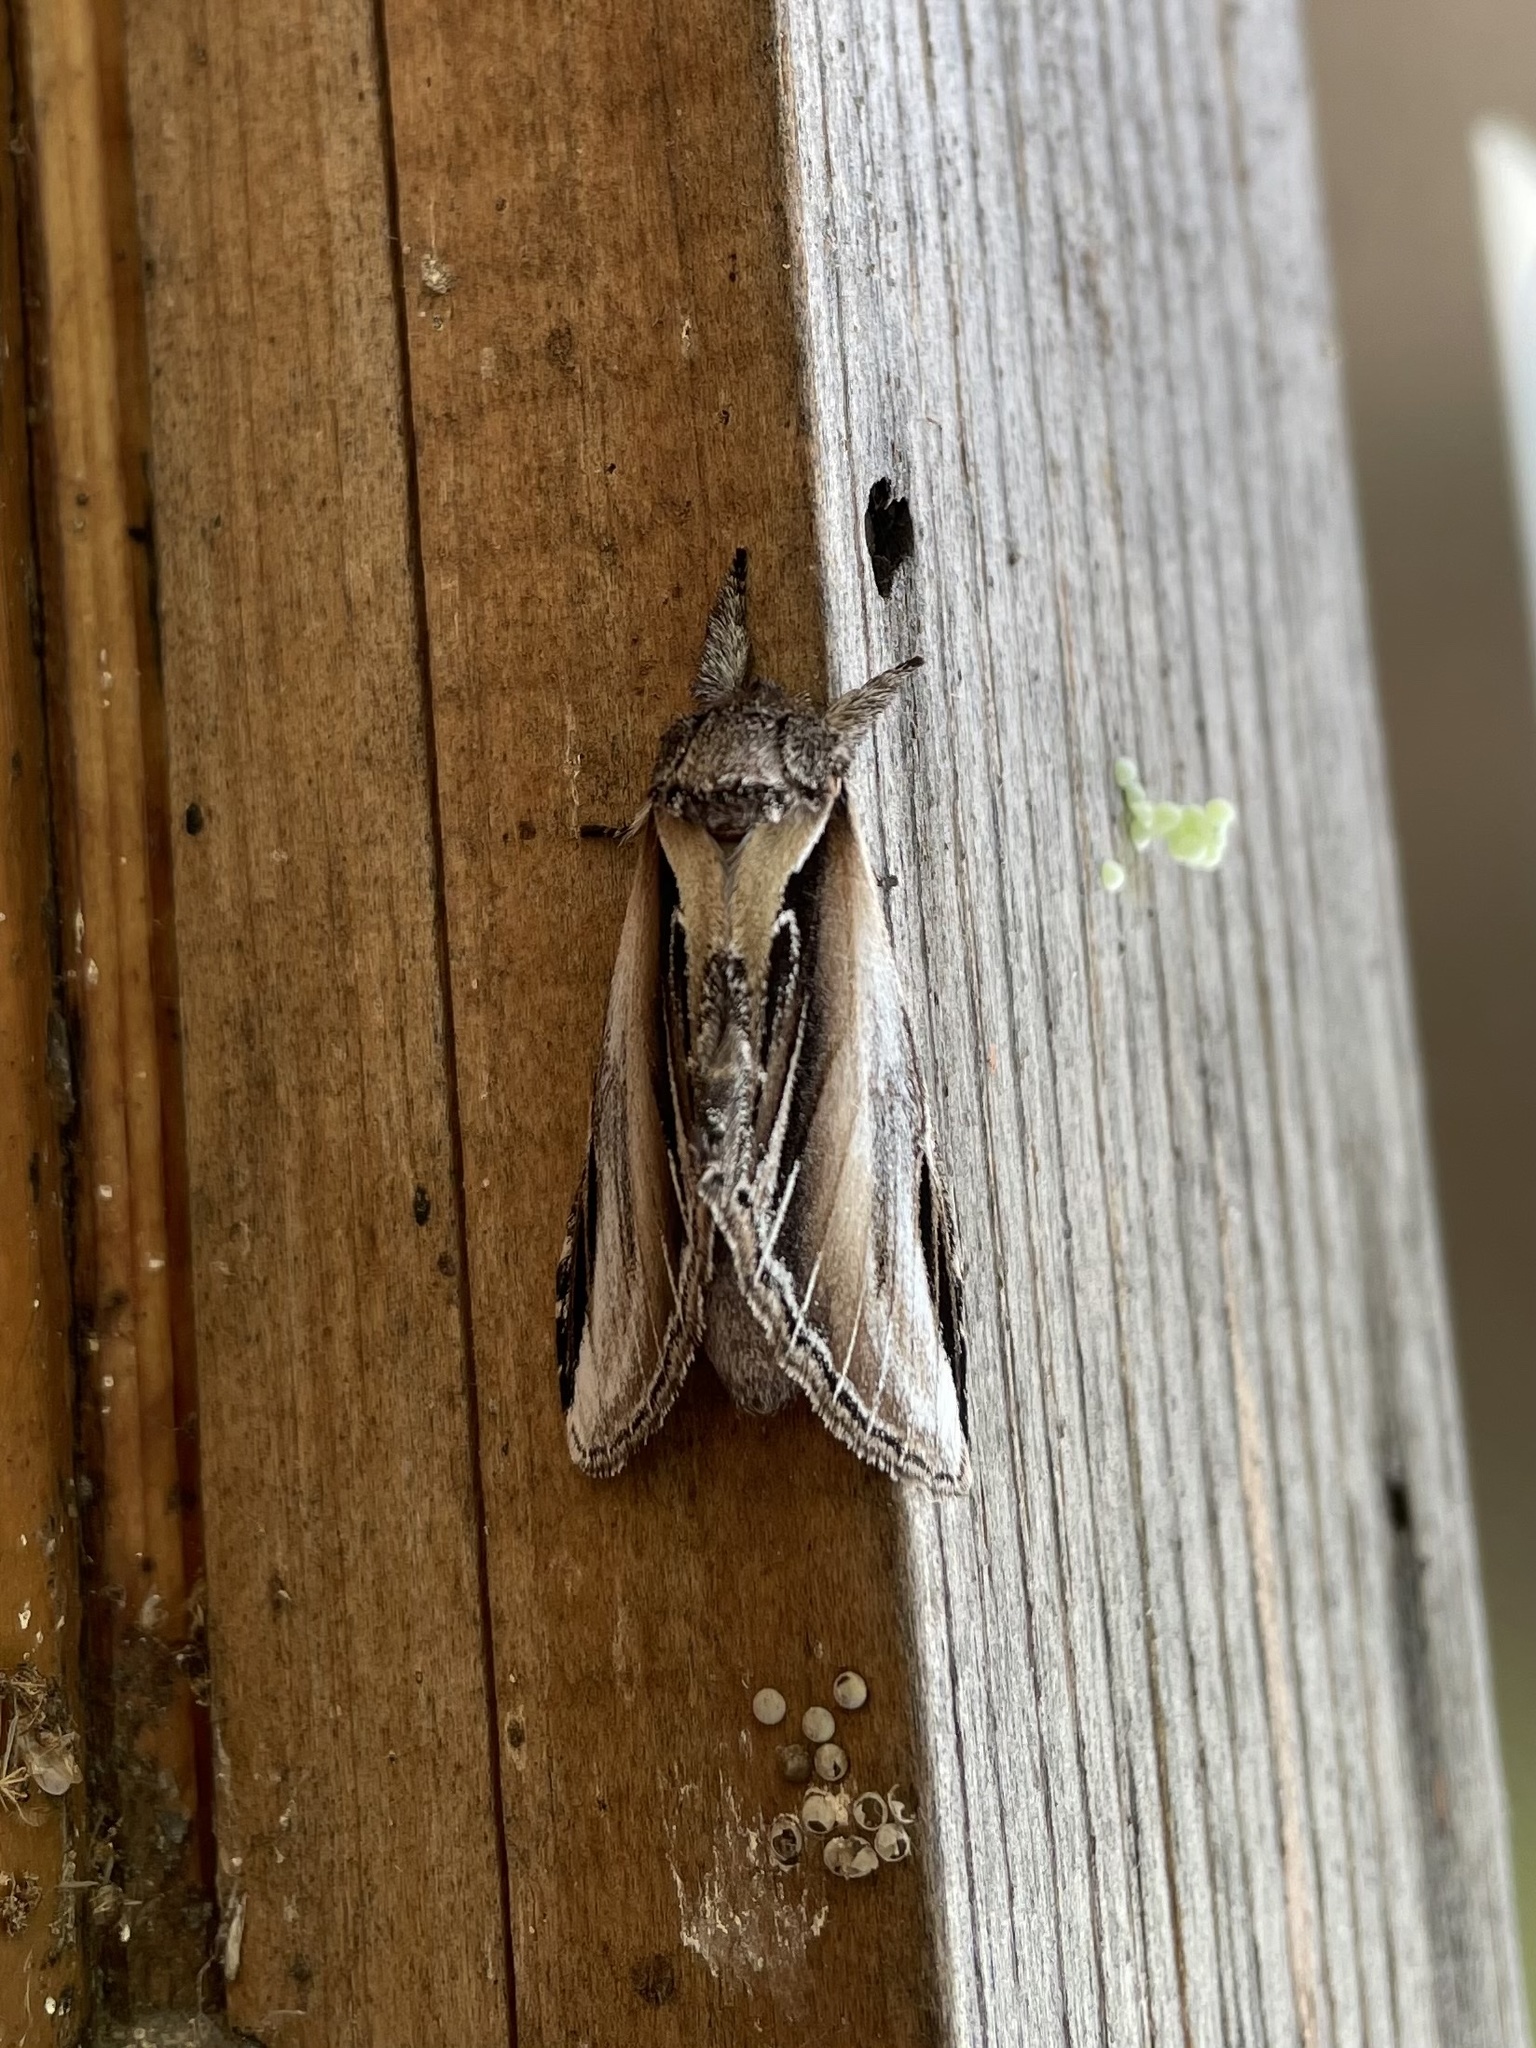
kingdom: Animalia
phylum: Arthropoda
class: Insecta
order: Lepidoptera
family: Notodontidae
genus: Pheosia
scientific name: Pheosia rimosa
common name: Black-rimmed prominent
